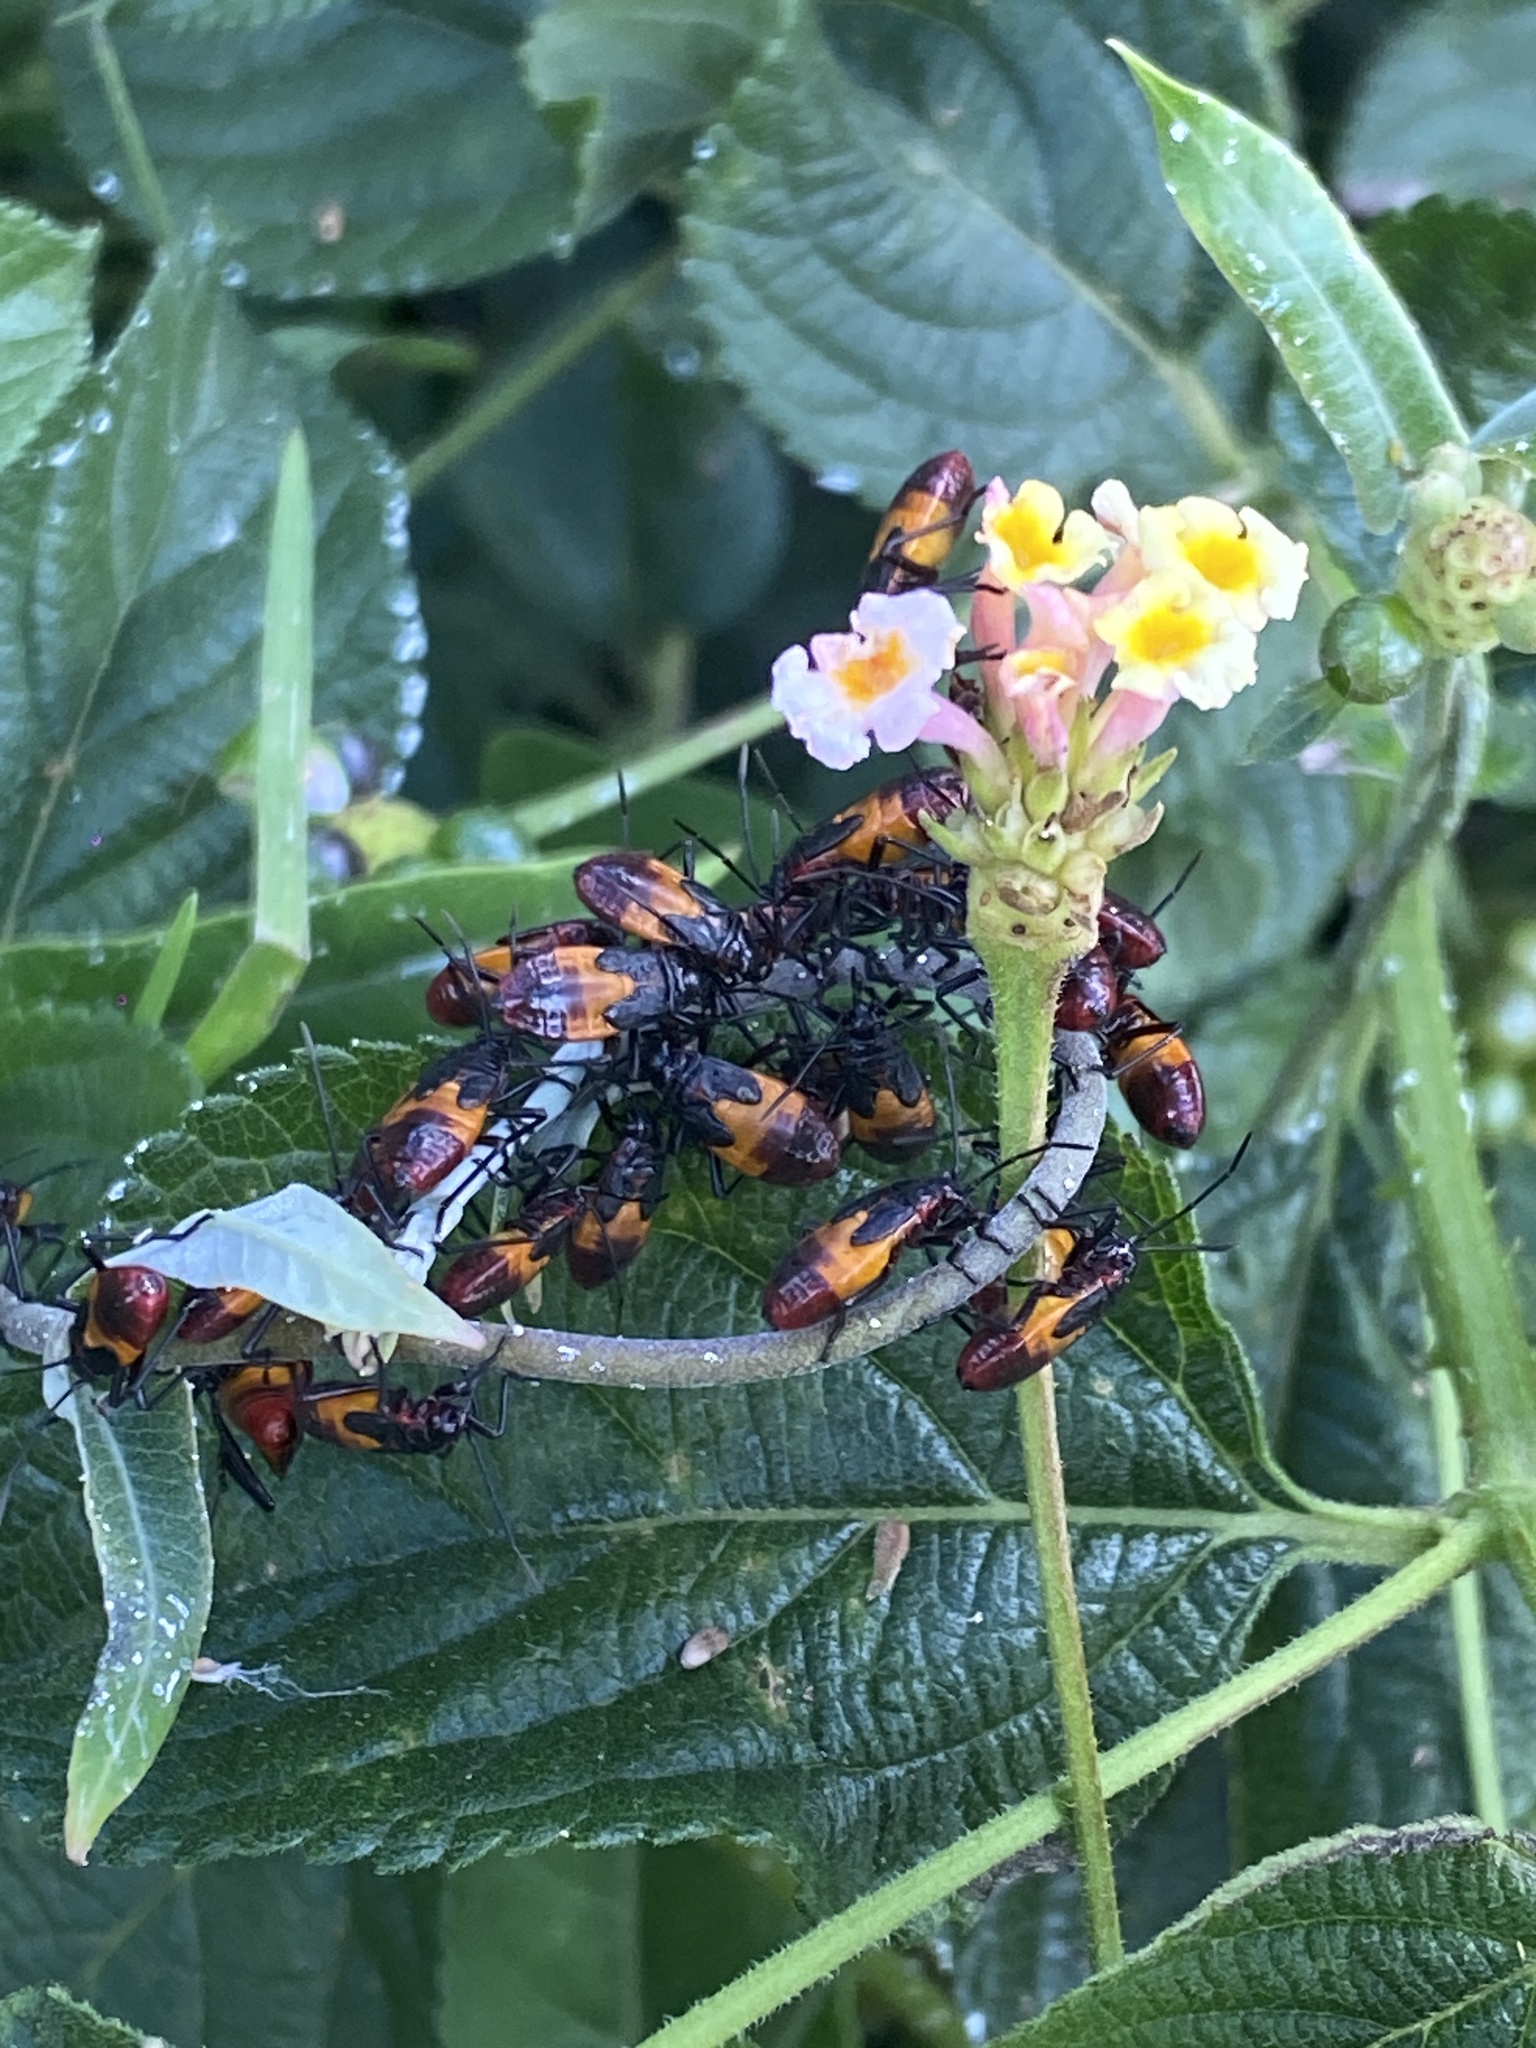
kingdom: Animalia
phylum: Arthropoda
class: Insecta
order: Hemiptera
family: Lygaeidae
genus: Oncopeltus
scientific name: Oncopeltus sordidus
